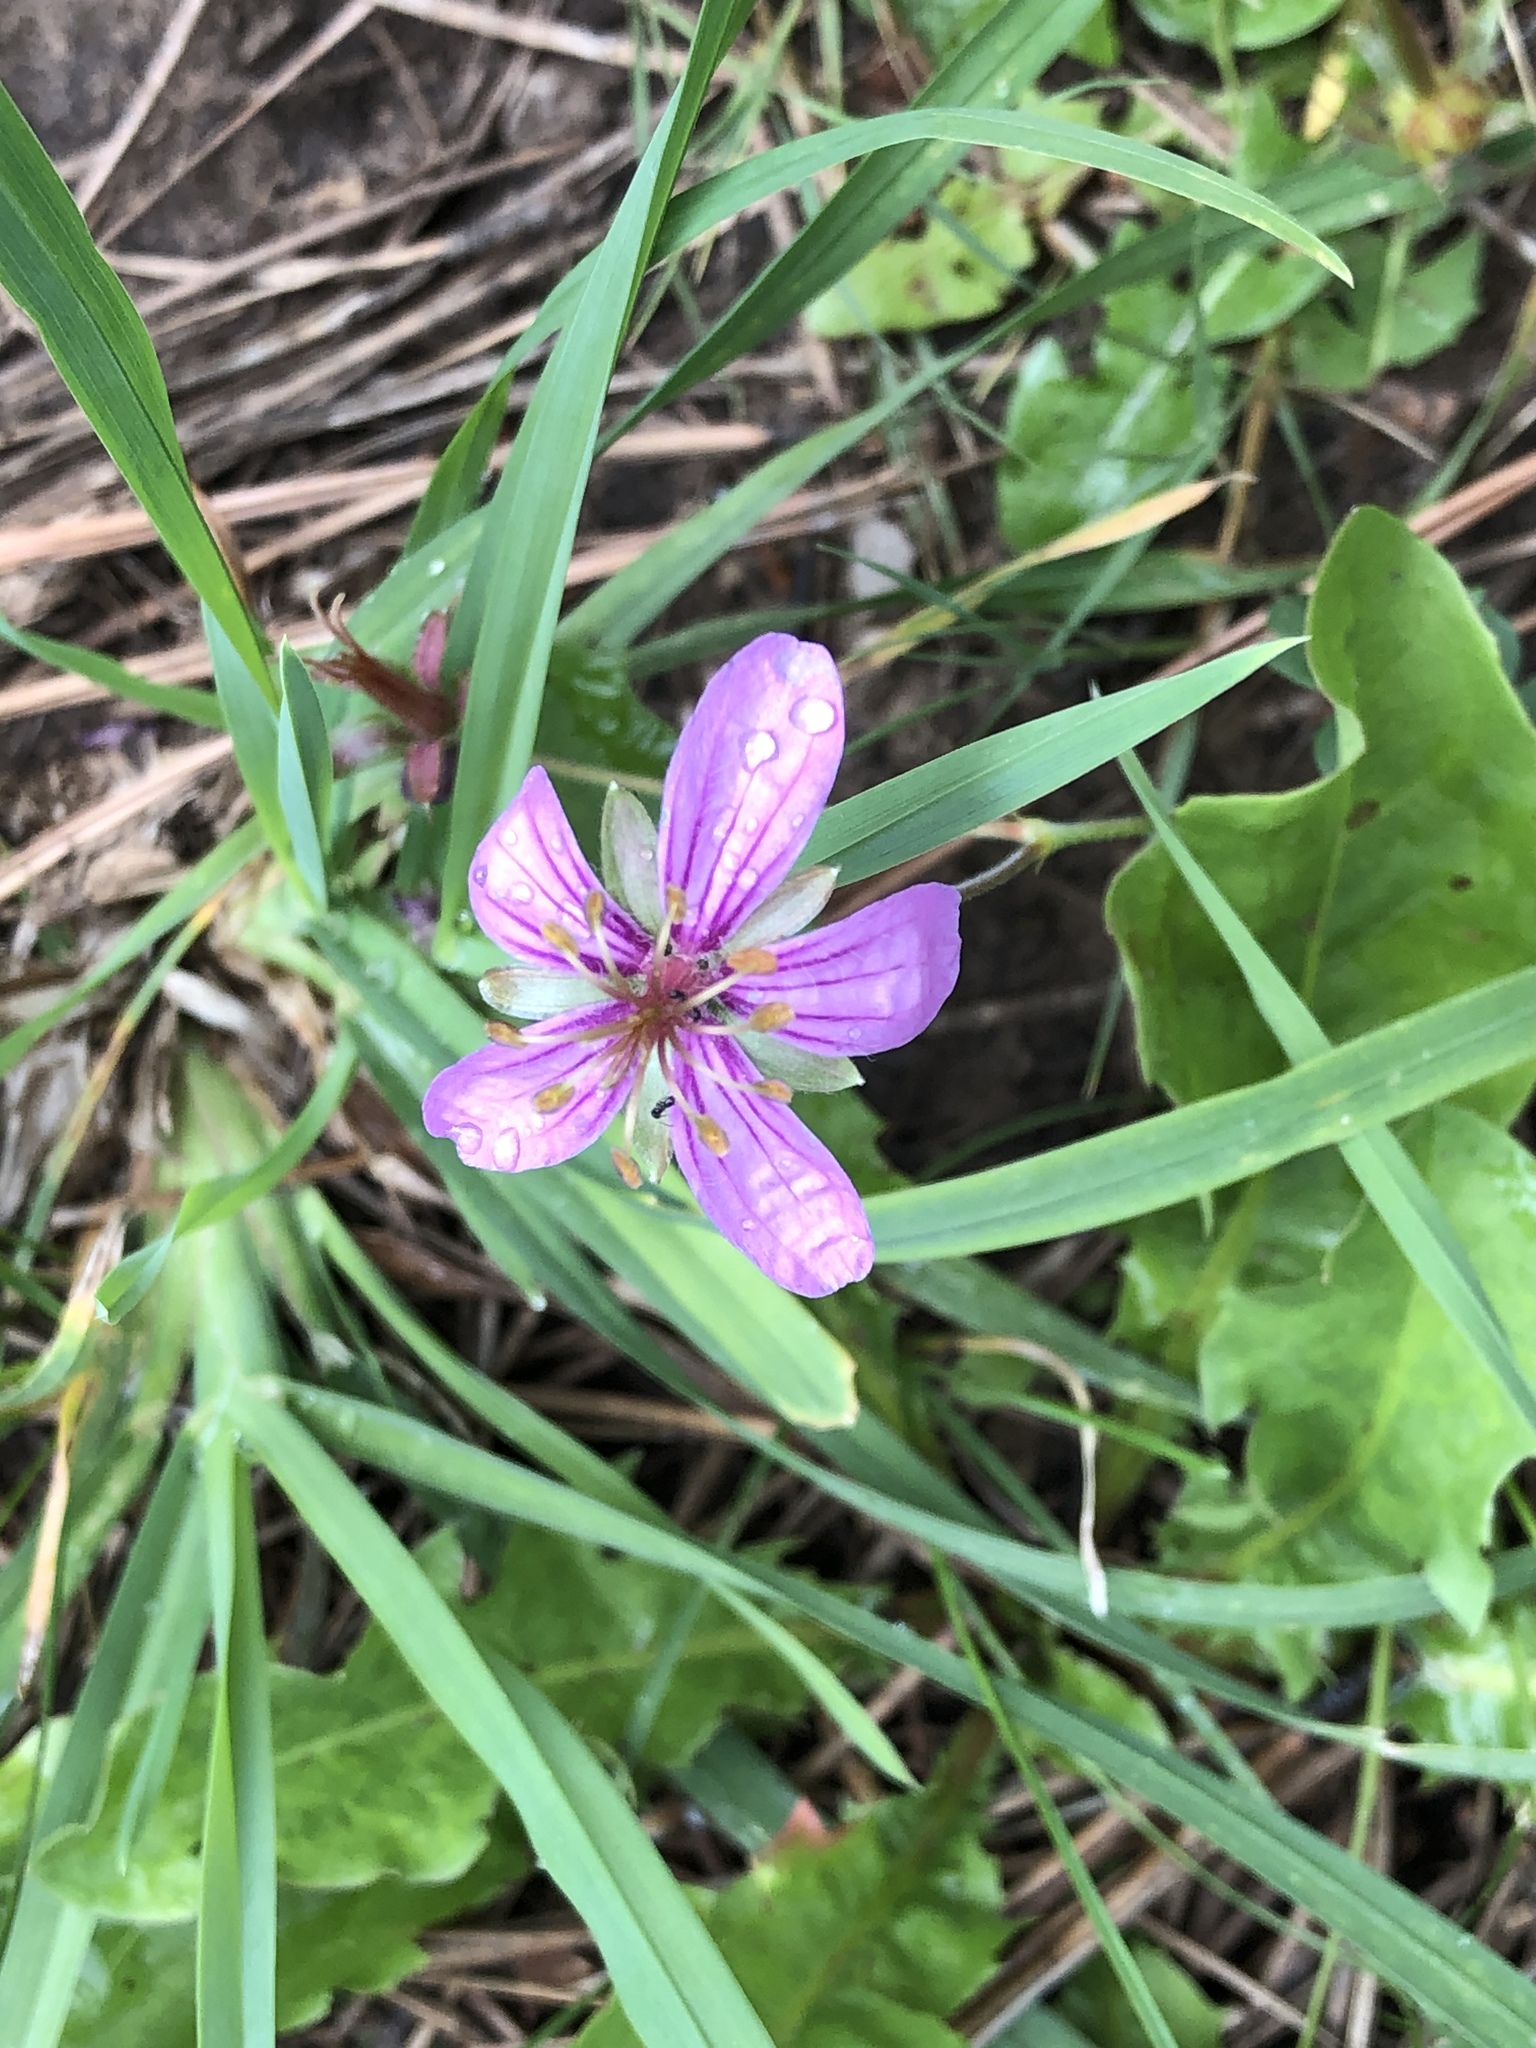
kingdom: Plantae
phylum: Tracheophyta
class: Magnoliopsida
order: Geraniales
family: Geraniaceae
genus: Geranium
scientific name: Geranium caespitosum
